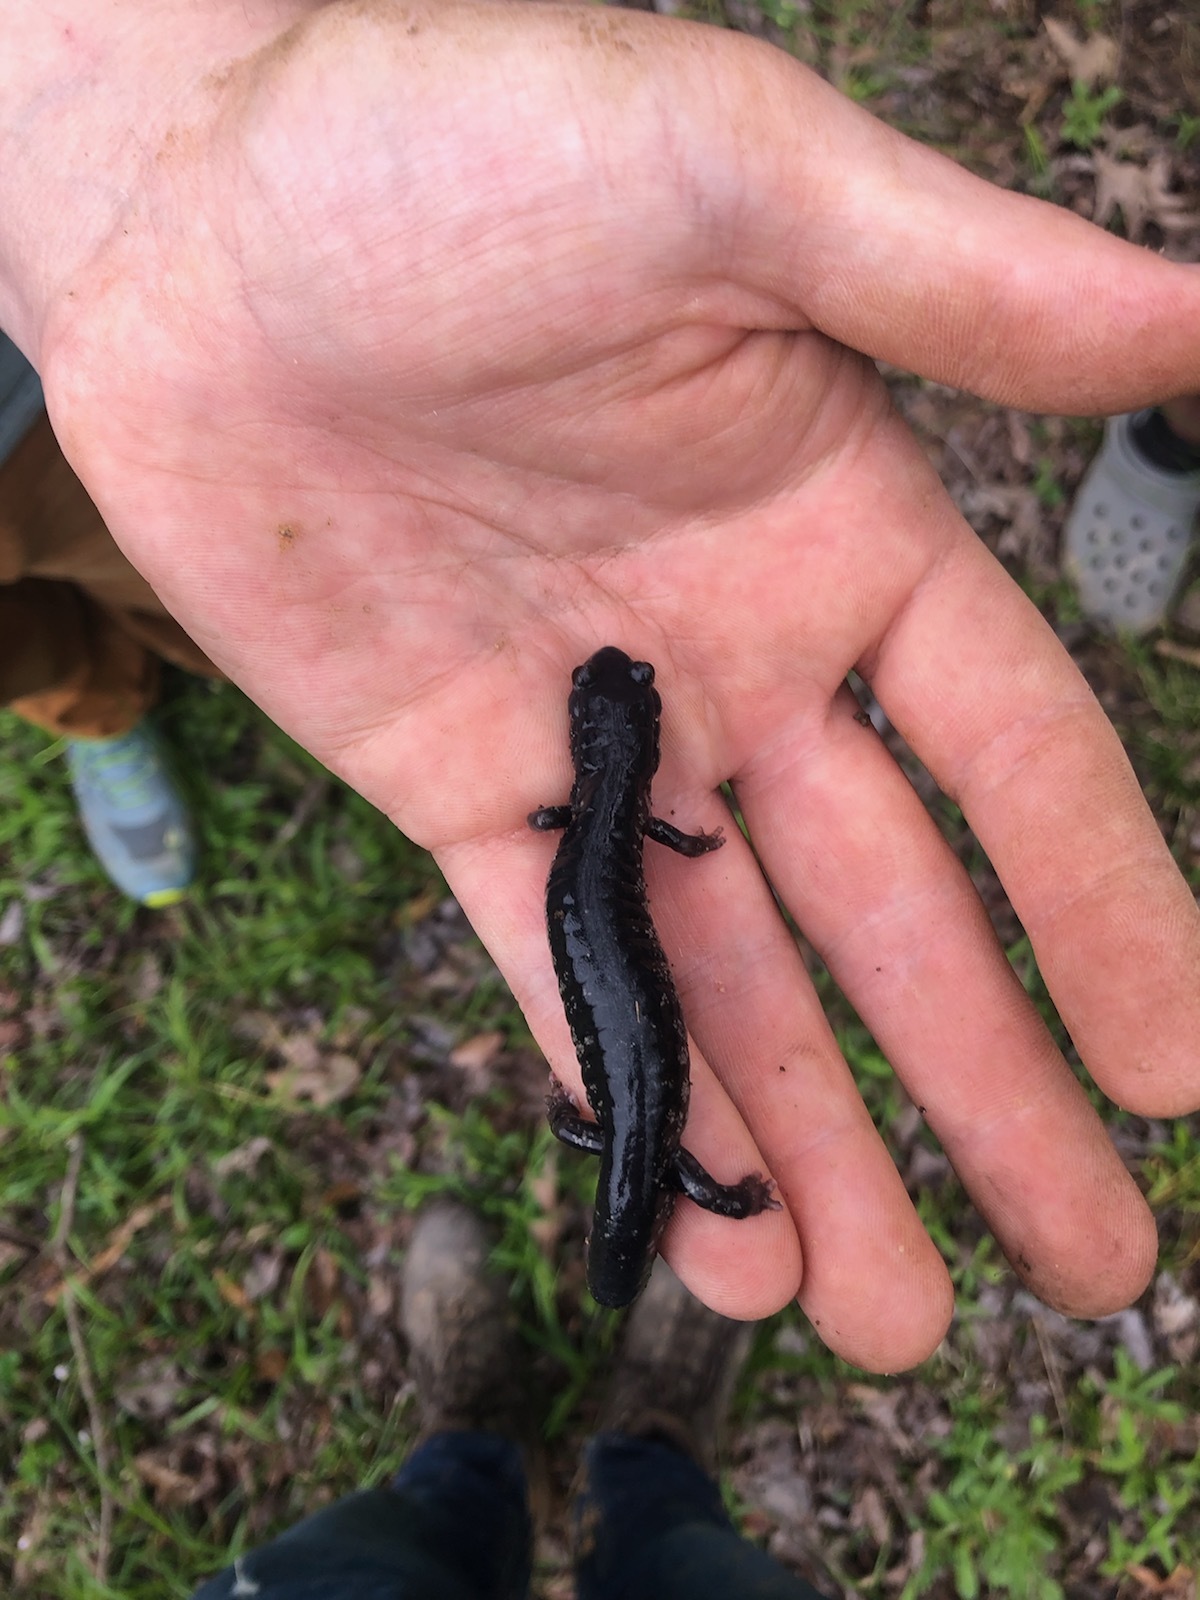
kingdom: Animalia
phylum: Chordata
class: Amphibia
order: Caudata
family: Plethodontidae
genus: Plethodon
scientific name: Plethodon mississippi
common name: Mississippi slimy salamander
